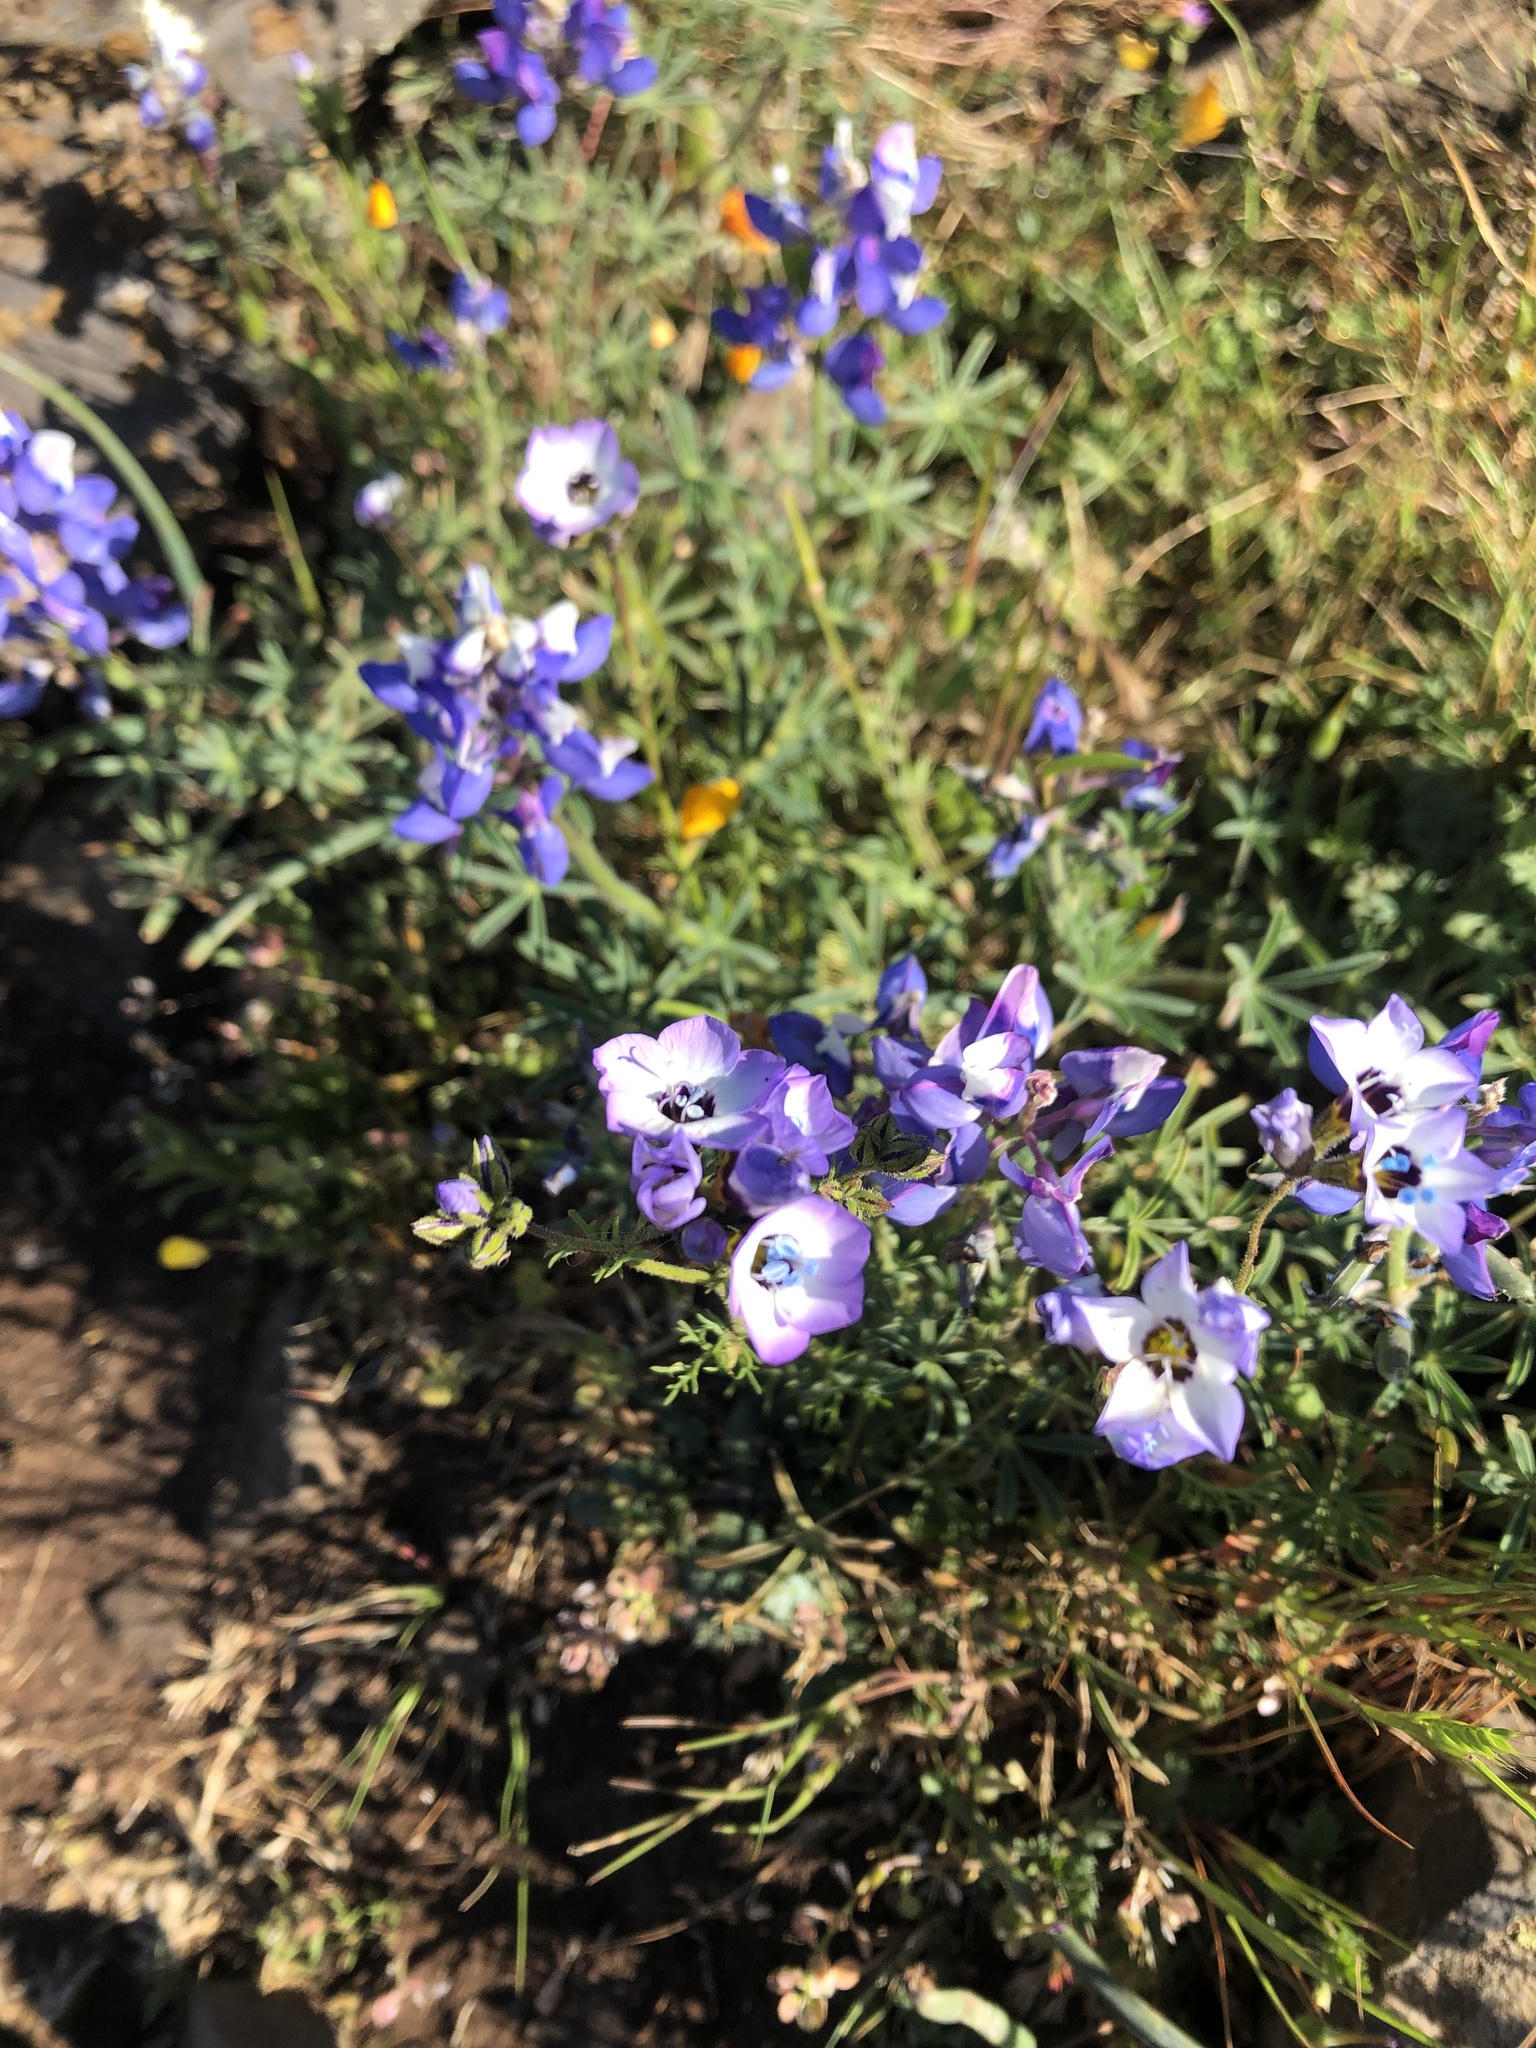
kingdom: Plantae
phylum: Tracheophyta
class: Magnoliopsida
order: Ericales
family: Polemoniaceae
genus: Gilia
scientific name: Gilia tricolor
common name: Bird's-eyes
